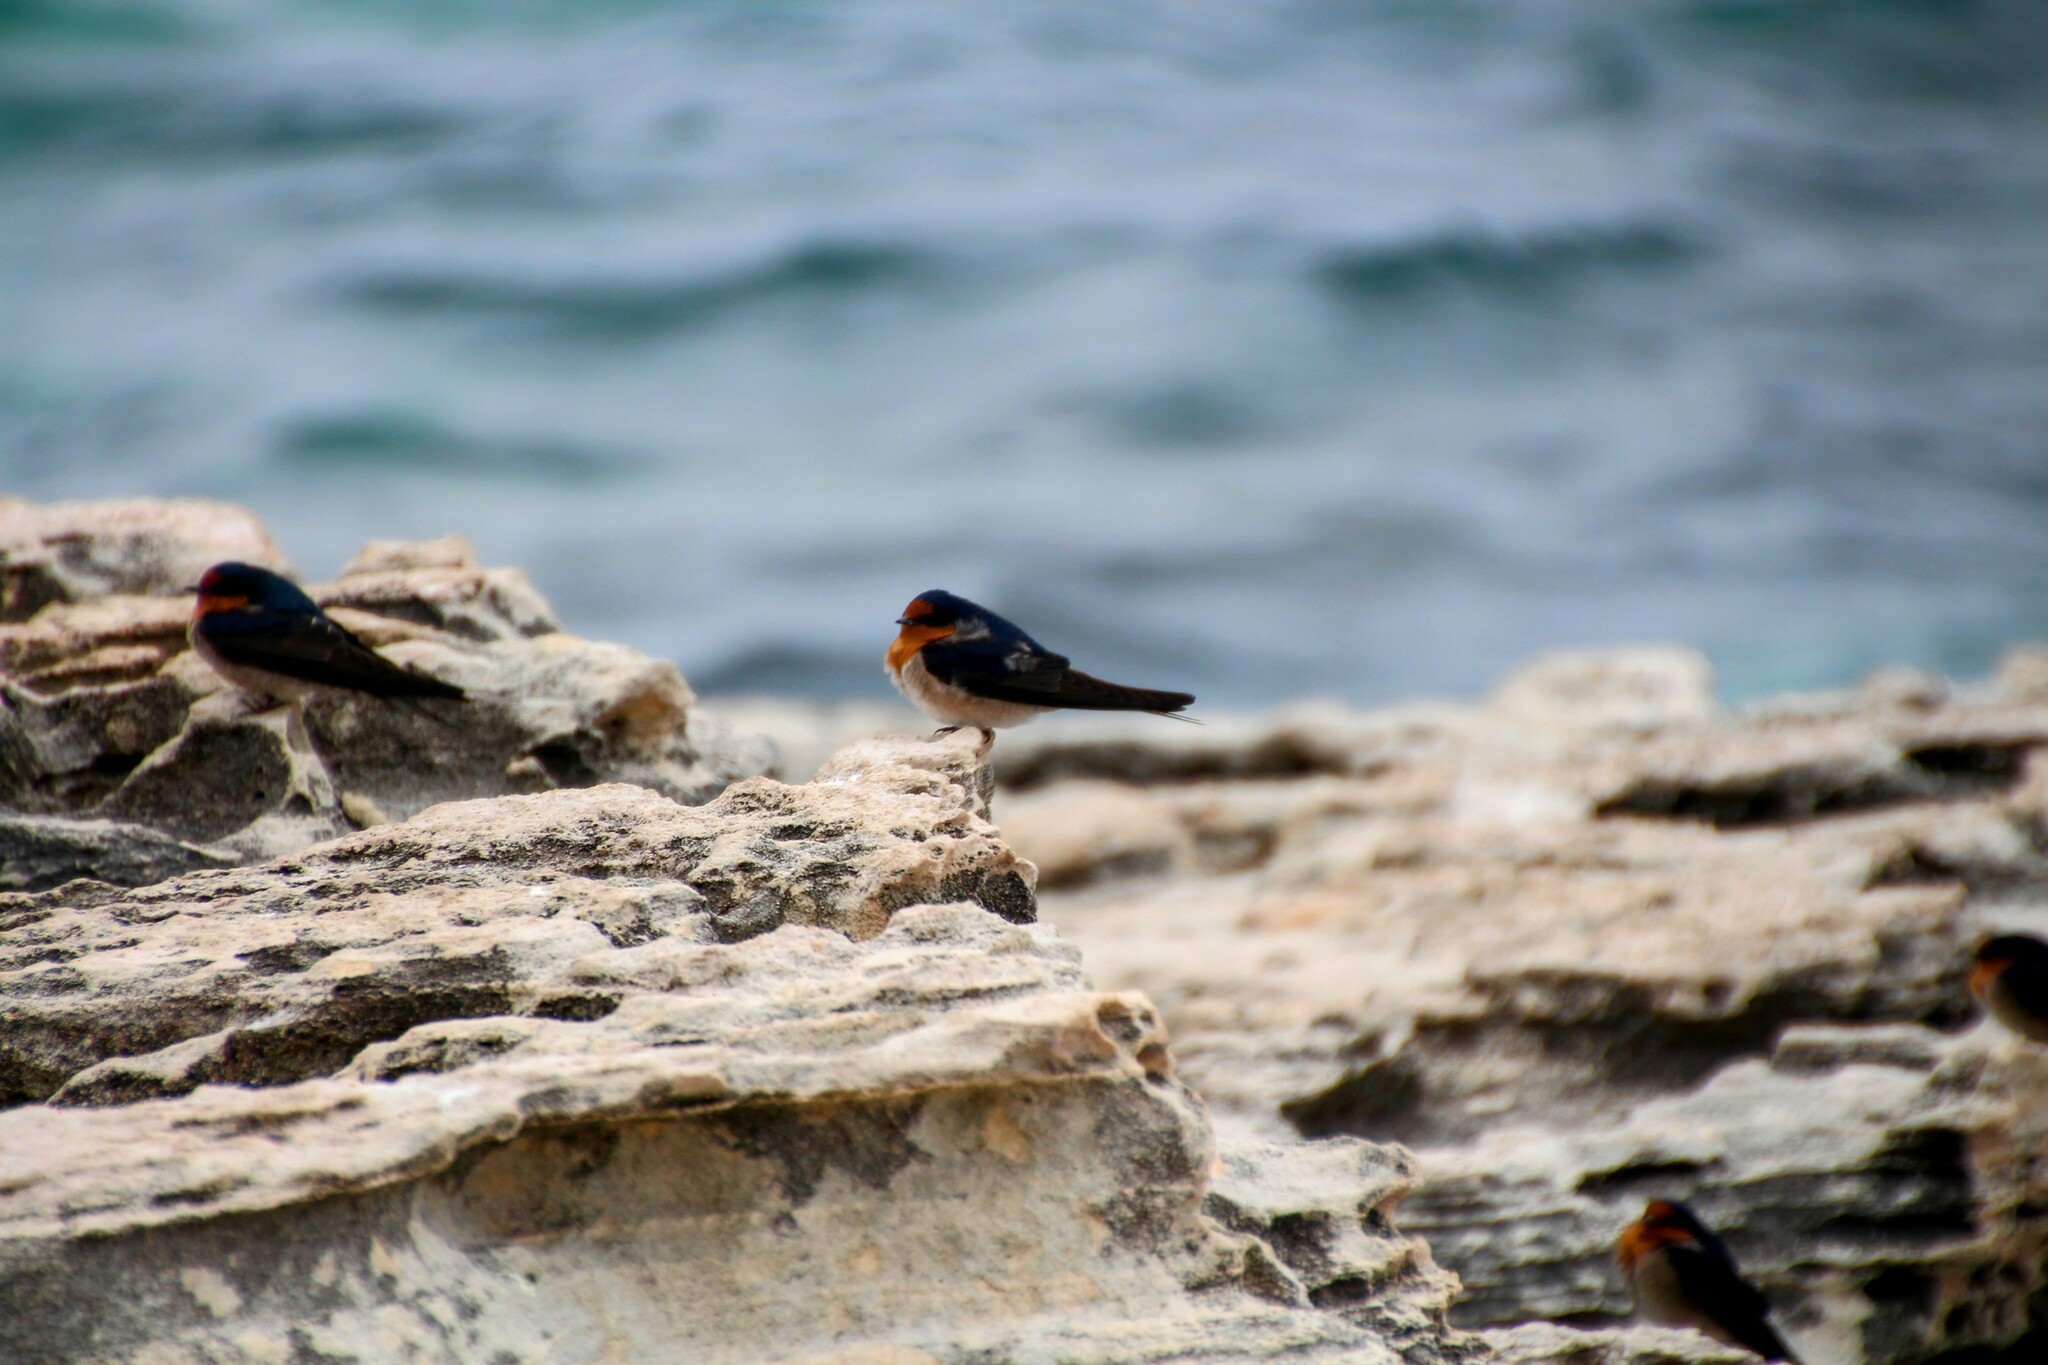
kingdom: Animalia
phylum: Chordata
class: Aves
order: Passeriformes
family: Hirundinidae
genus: Hirundo
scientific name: Hirundo neoxena
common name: Welcome swallow
